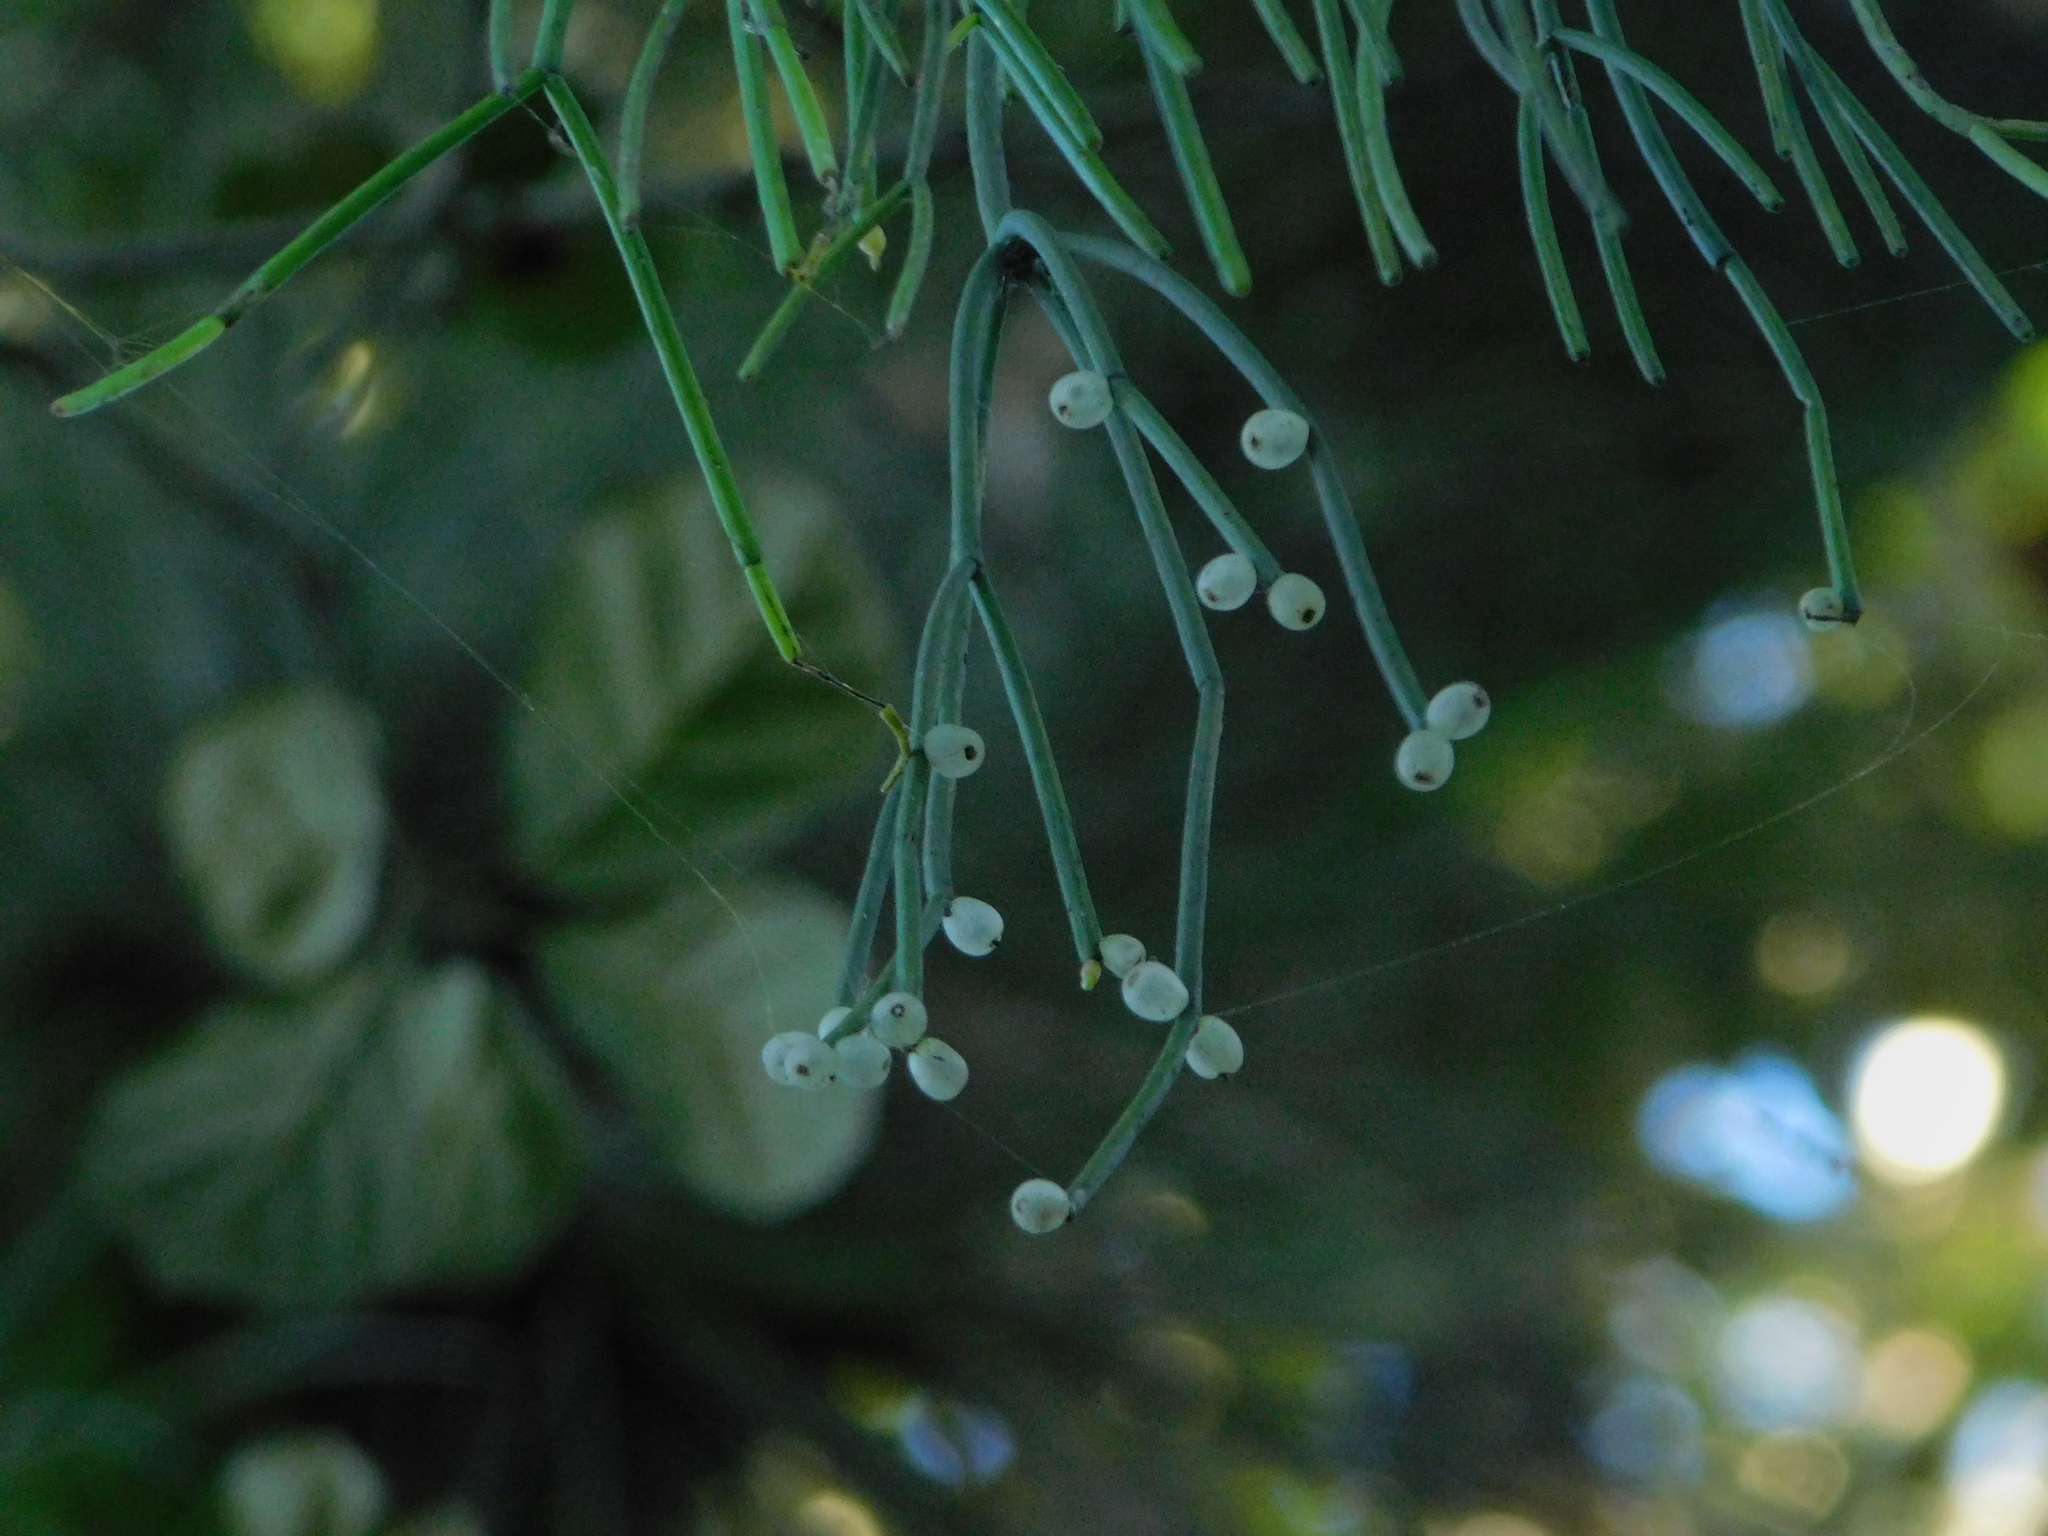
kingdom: Plantae
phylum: Tracheophyta
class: Magnoliopsida
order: Caryophyllales
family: Cactaceae
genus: Rhipsalis
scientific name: Rhipsalis baccifera
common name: Mistletoe cactus
